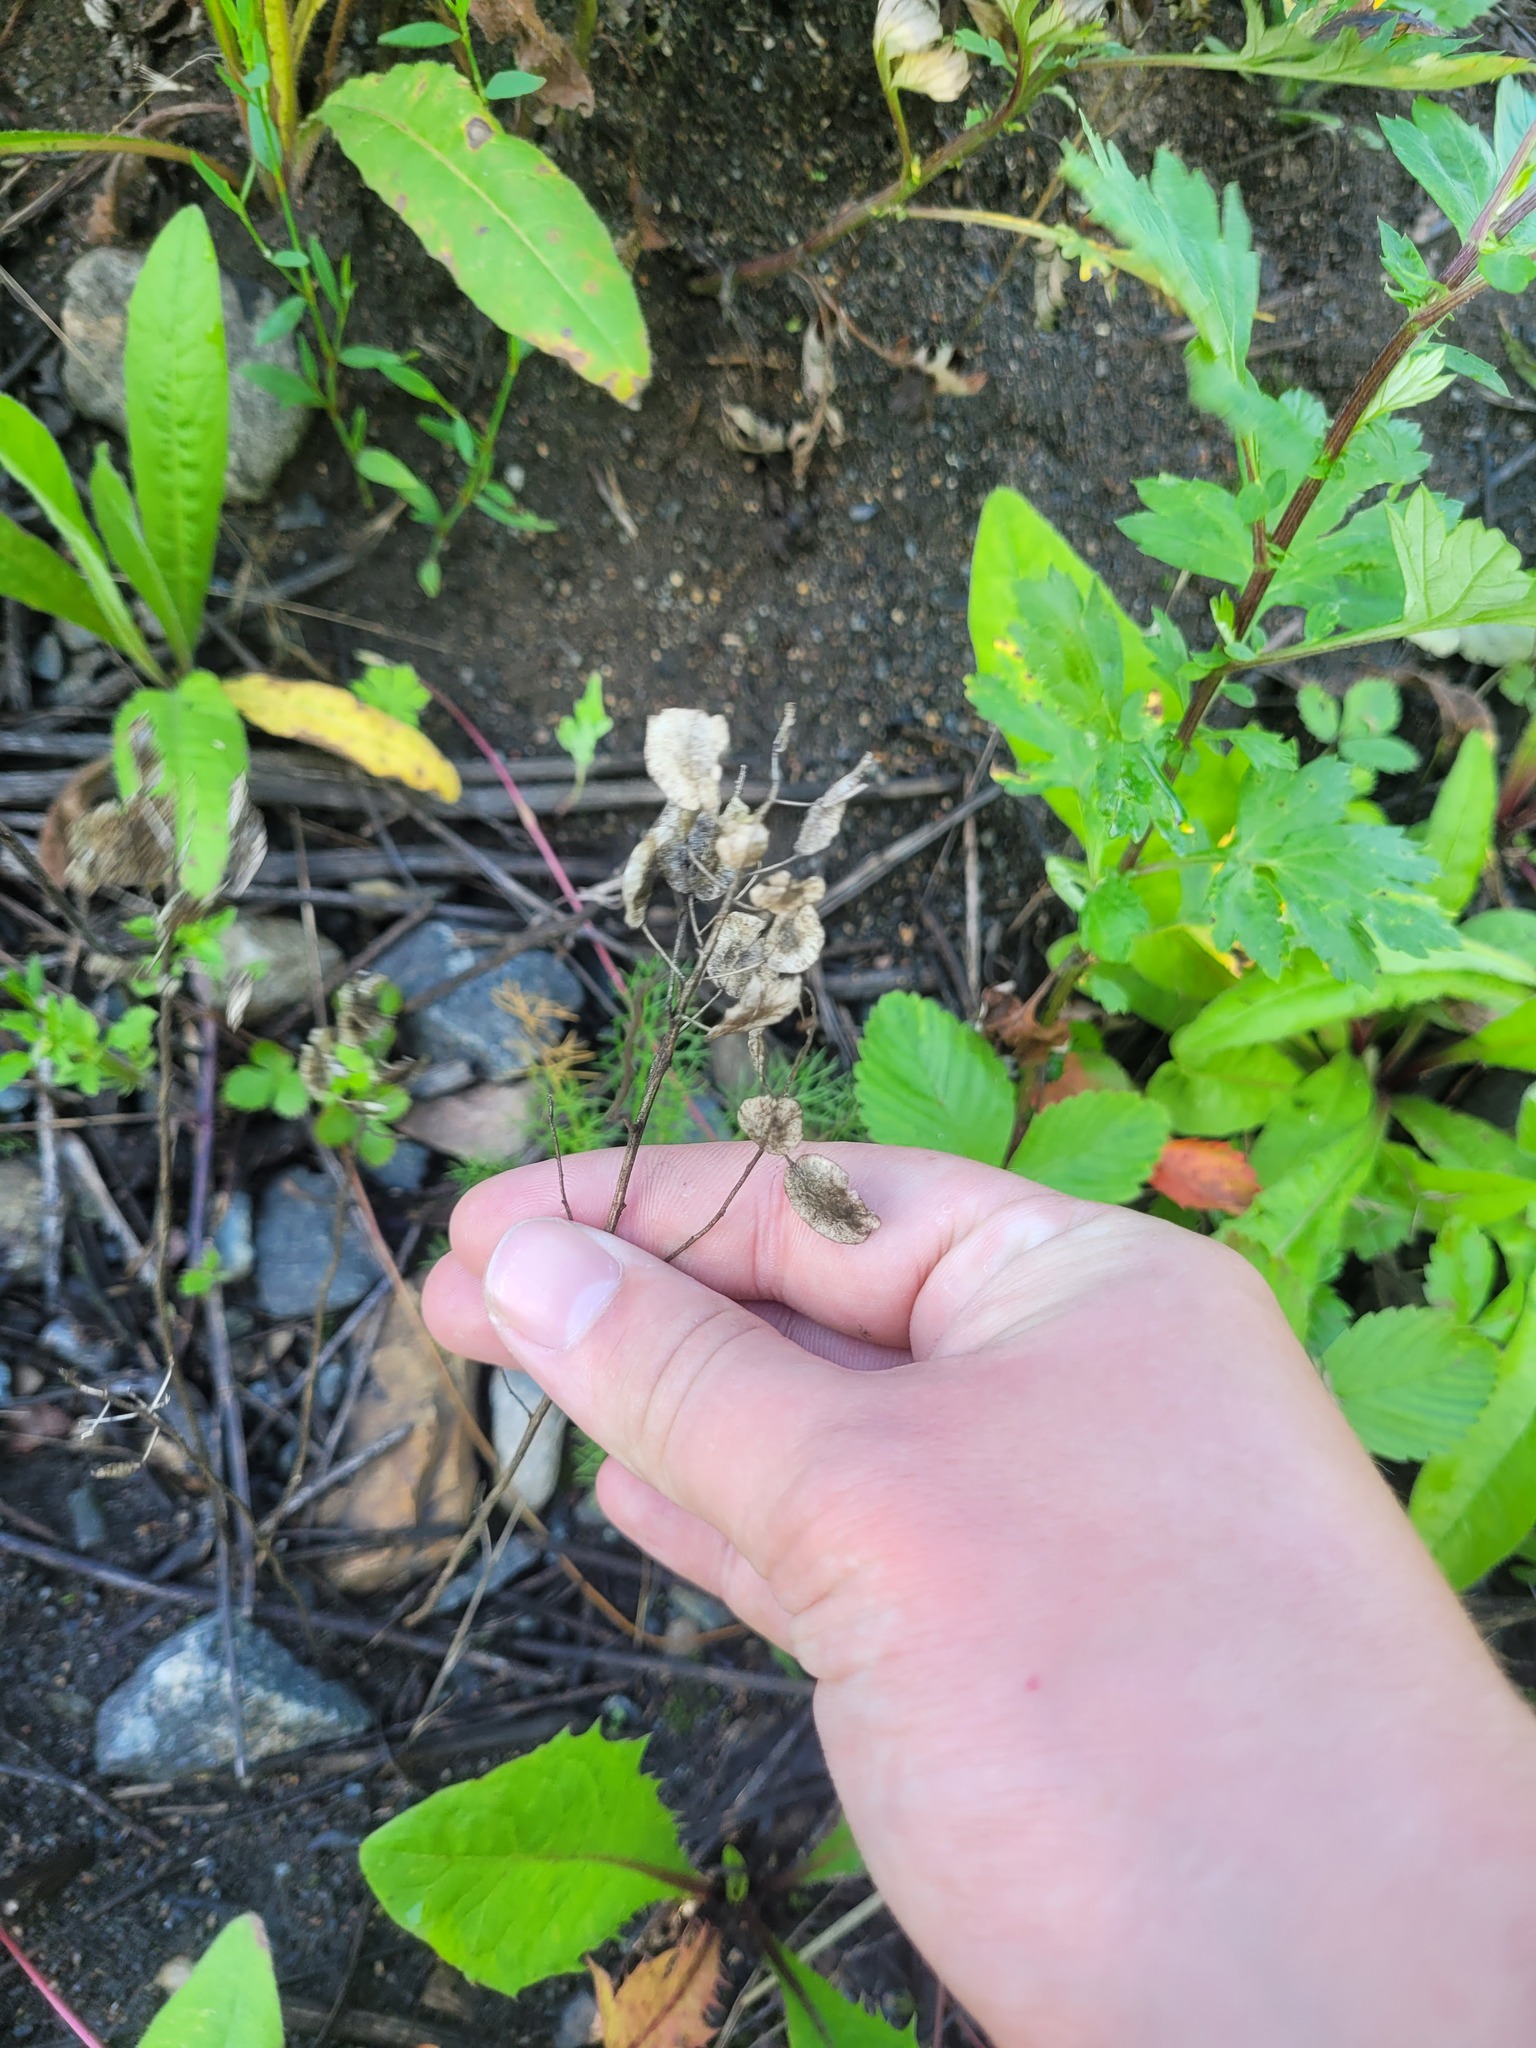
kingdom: Plantae
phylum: Tracheophyta
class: Magnoliopsida
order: Brassicales
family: Brassicaceae
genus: Thlaspi
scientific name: Thlaspi arvense
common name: Field pennycress
